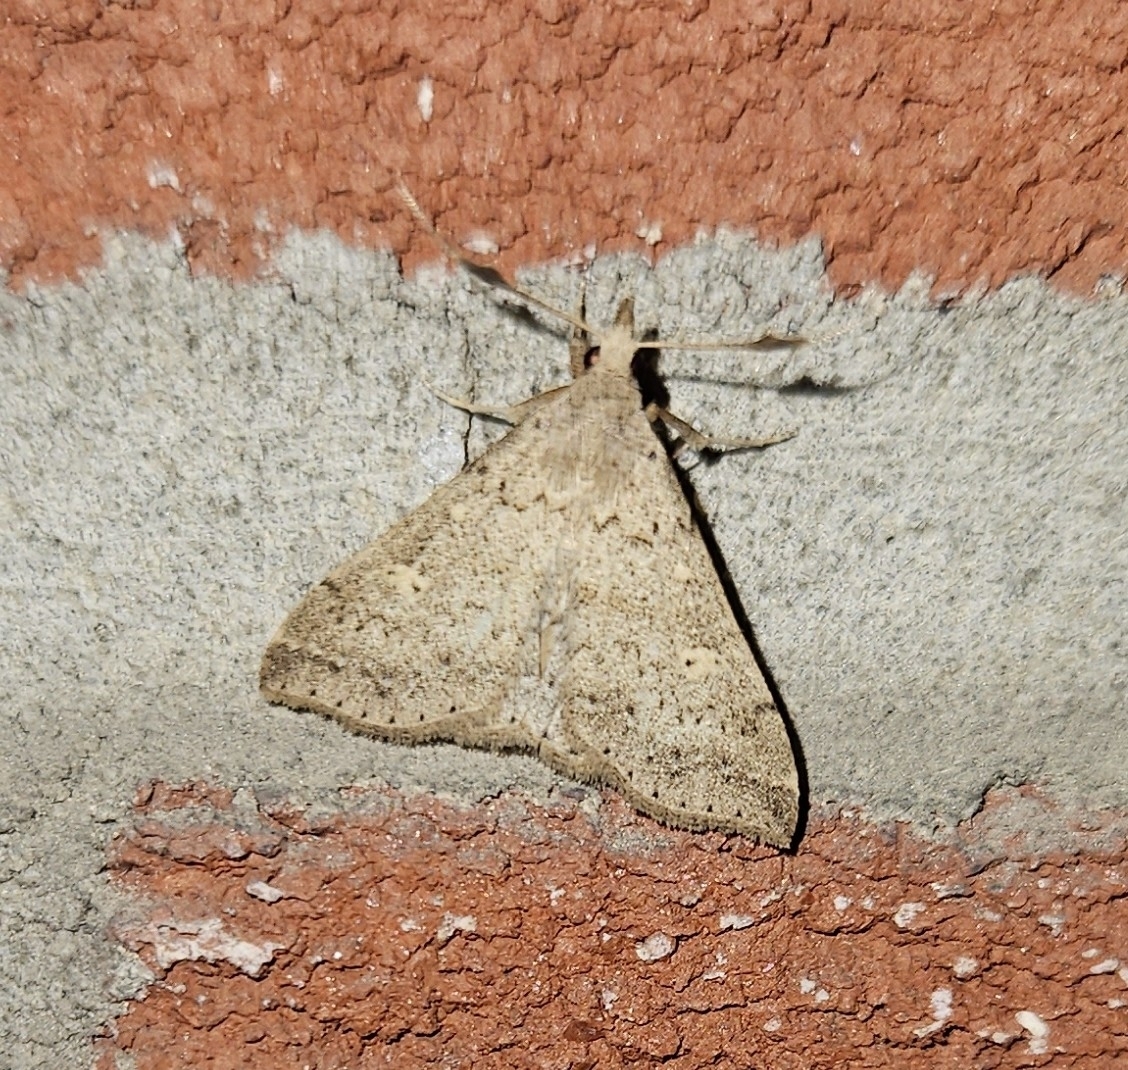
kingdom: Animalia
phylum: Arthropoda
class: Insecta
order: Lepidoptera
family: Erebidae
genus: Renia
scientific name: Renia salusalis
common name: Dotted renia moth
